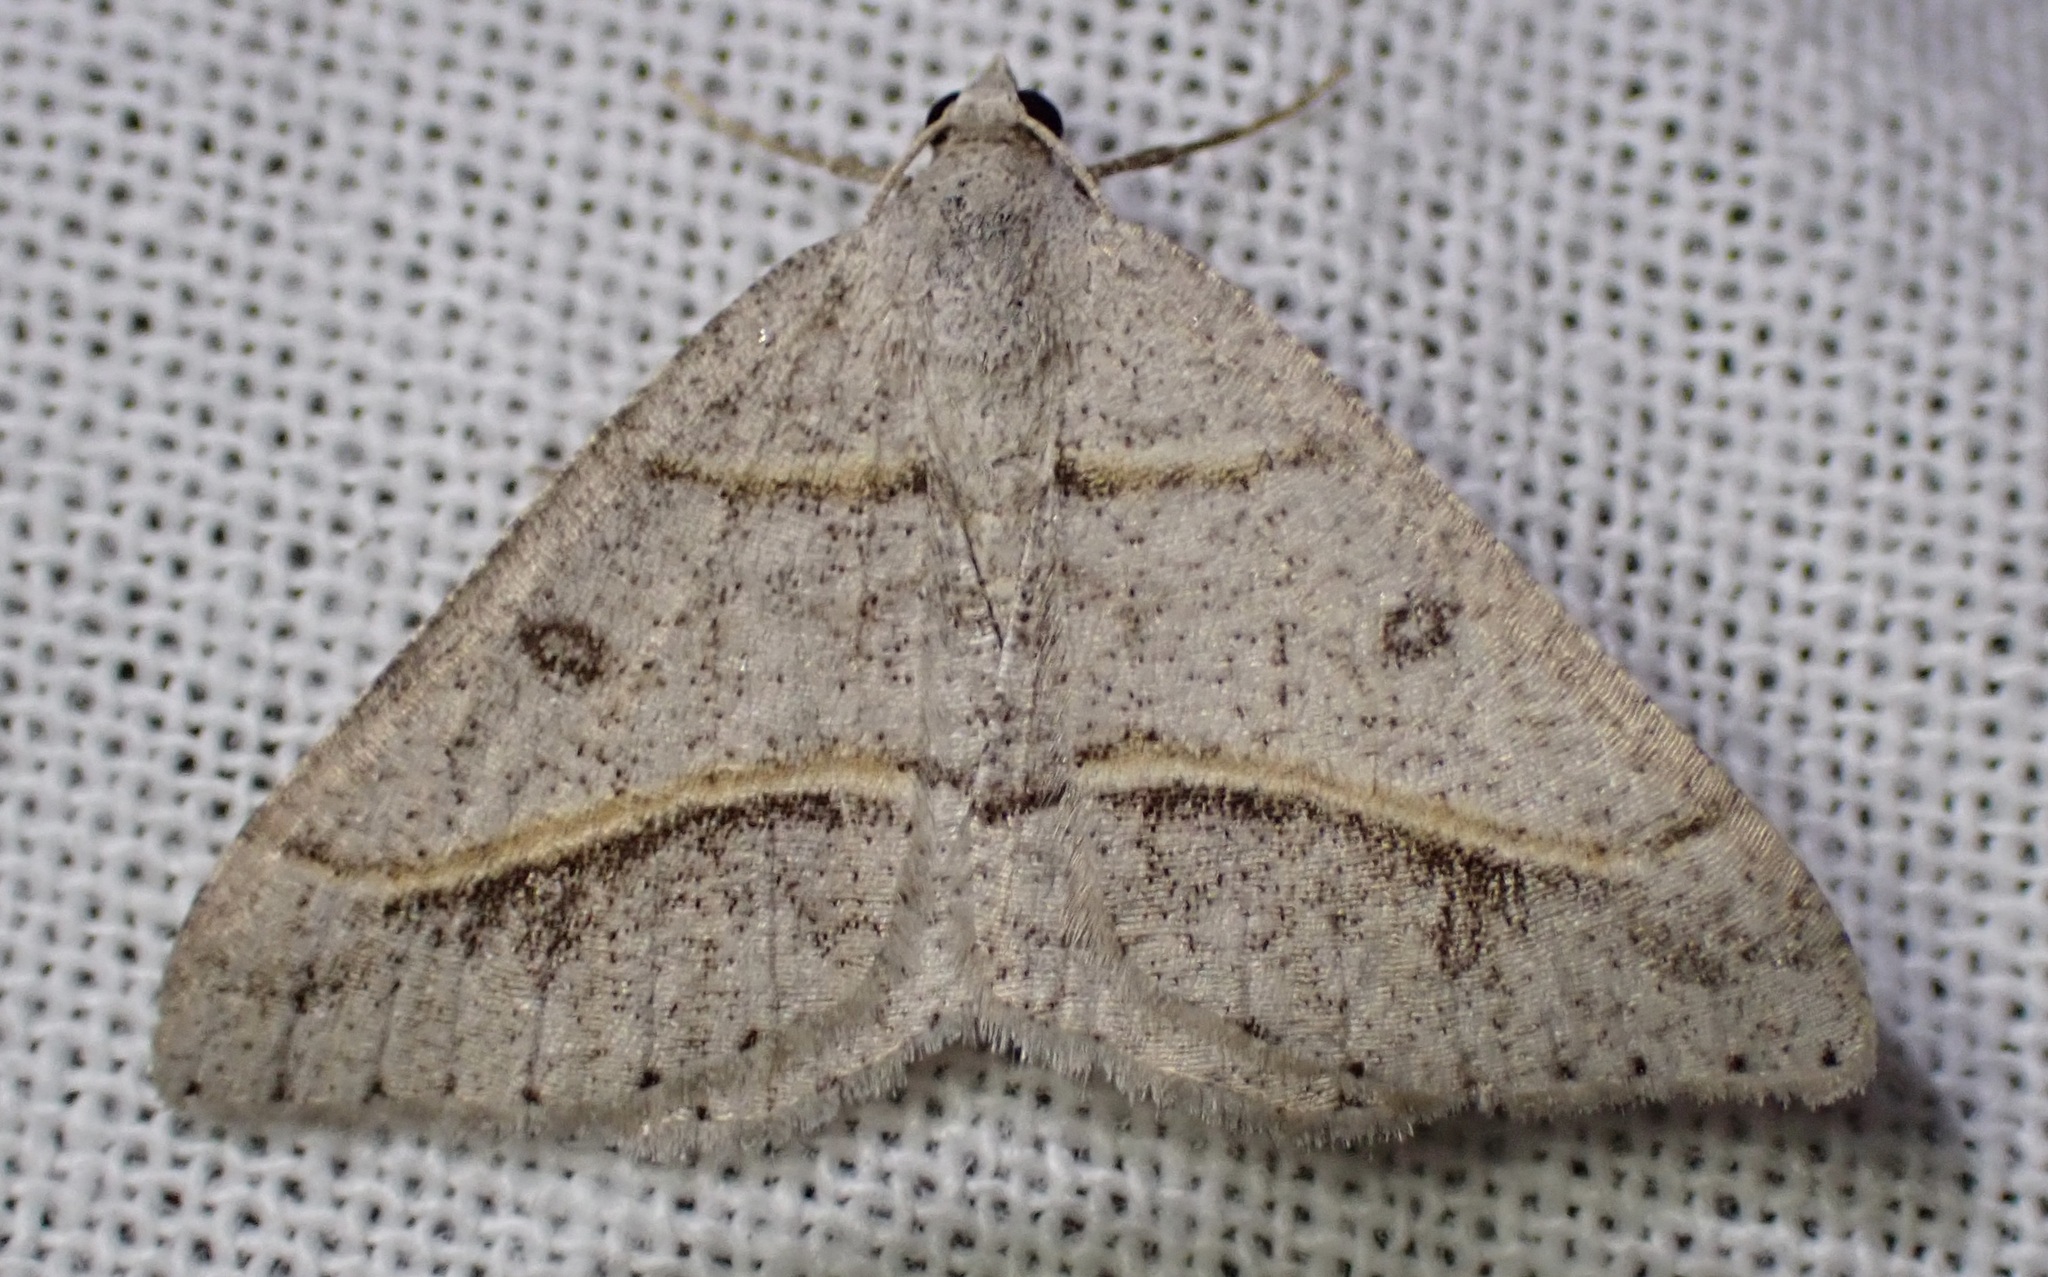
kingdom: Animalia
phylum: Arthropoda
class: Insecta
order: Lepidoptera
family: Geometridae
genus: Digrammia
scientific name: Digrammia neptaria
